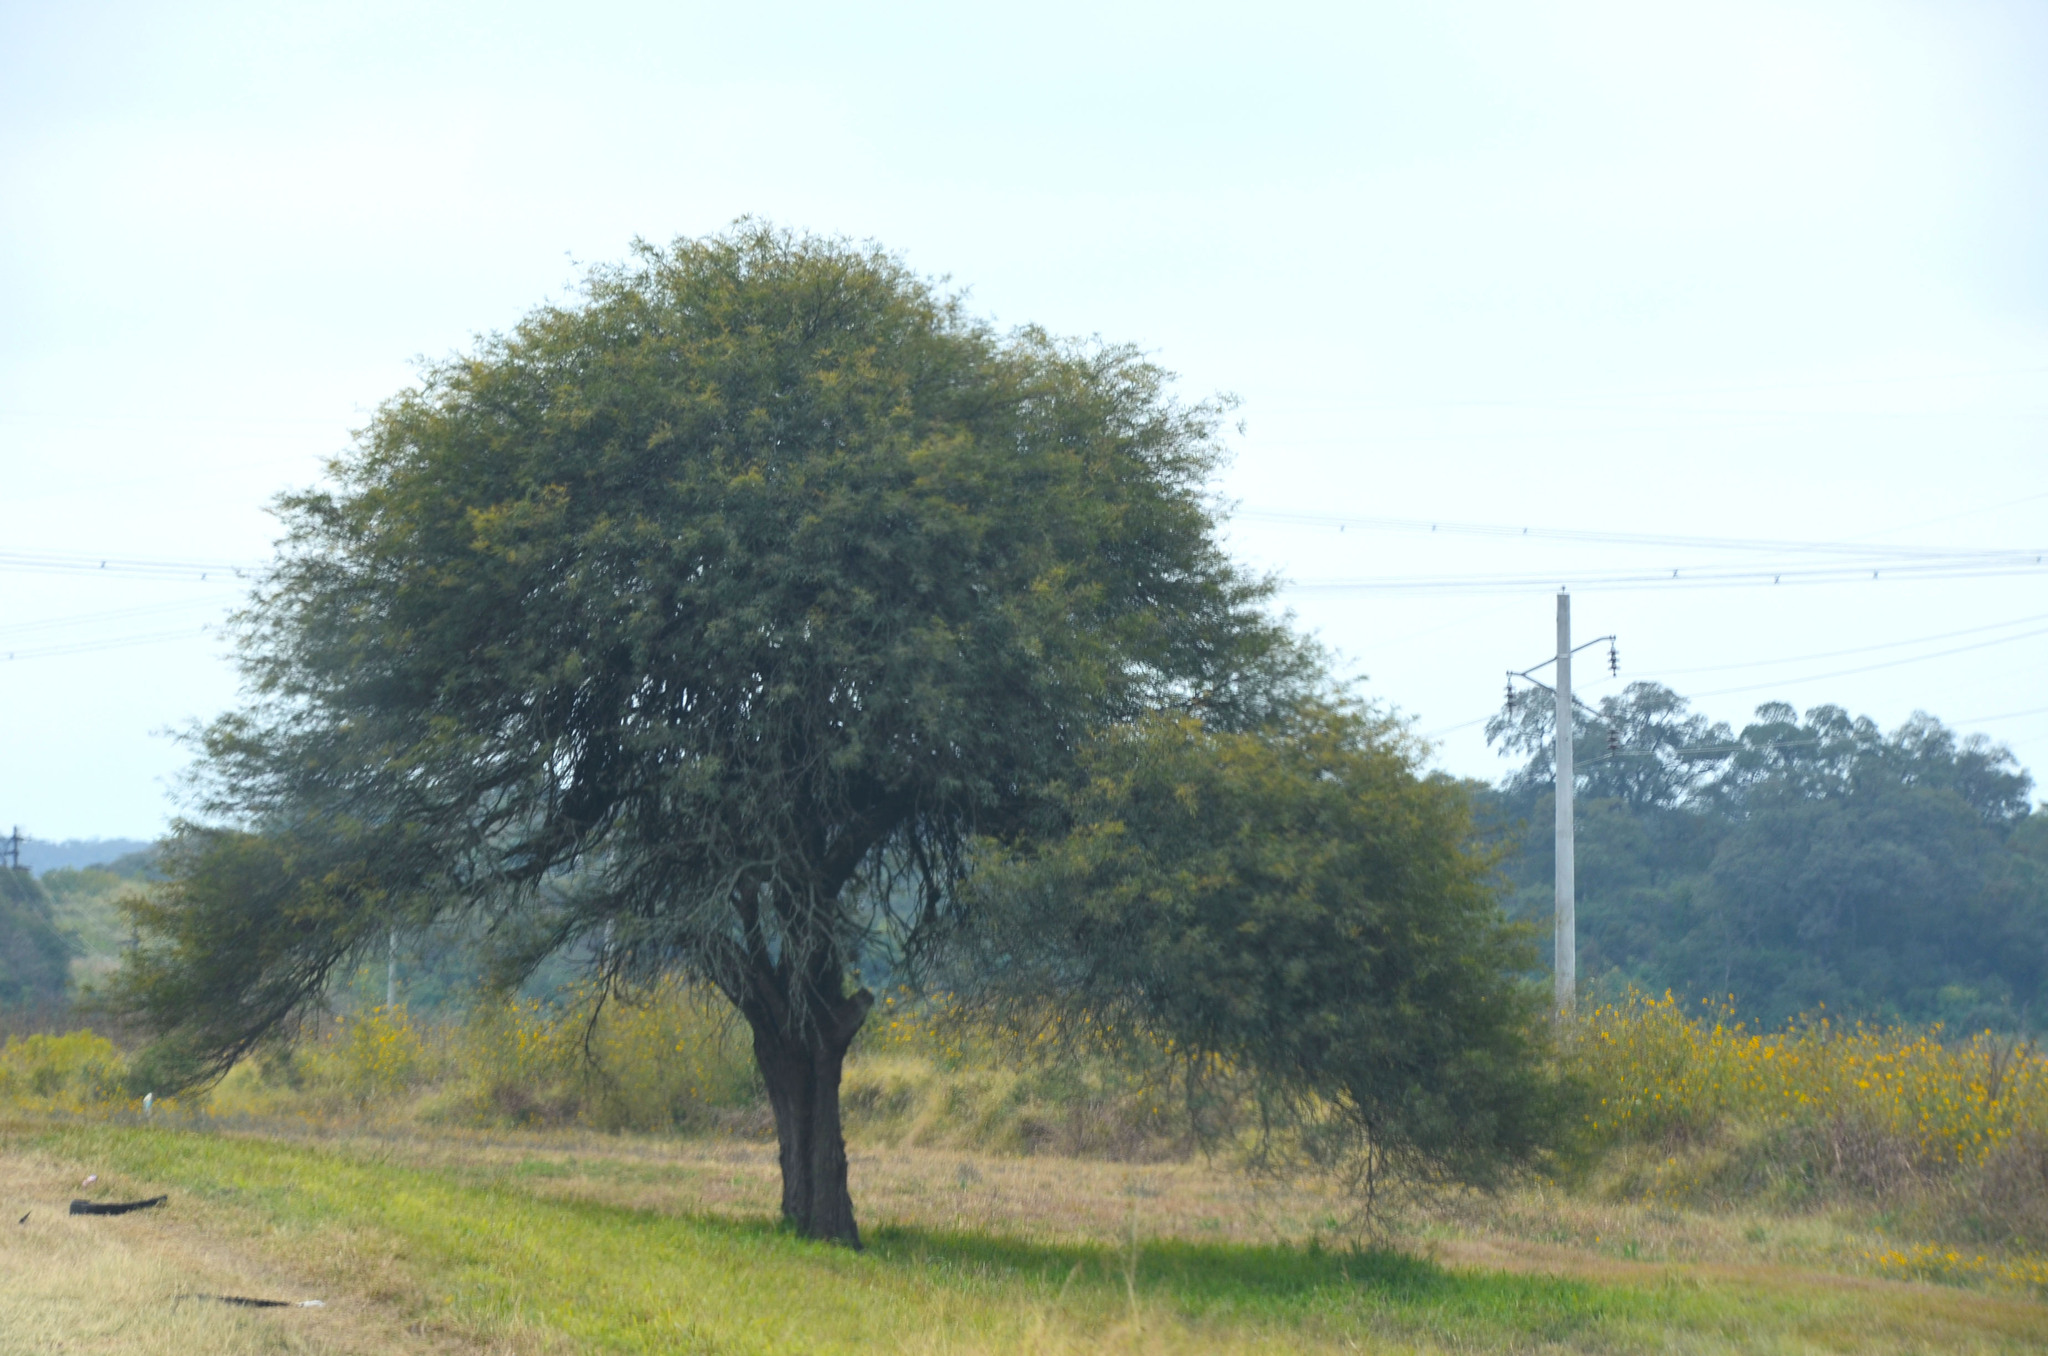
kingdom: Plantae
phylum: Tracheophyta
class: Magnoliopsida
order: Fabales
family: Fabaceae
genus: Prosopis
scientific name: Prosopis alba
